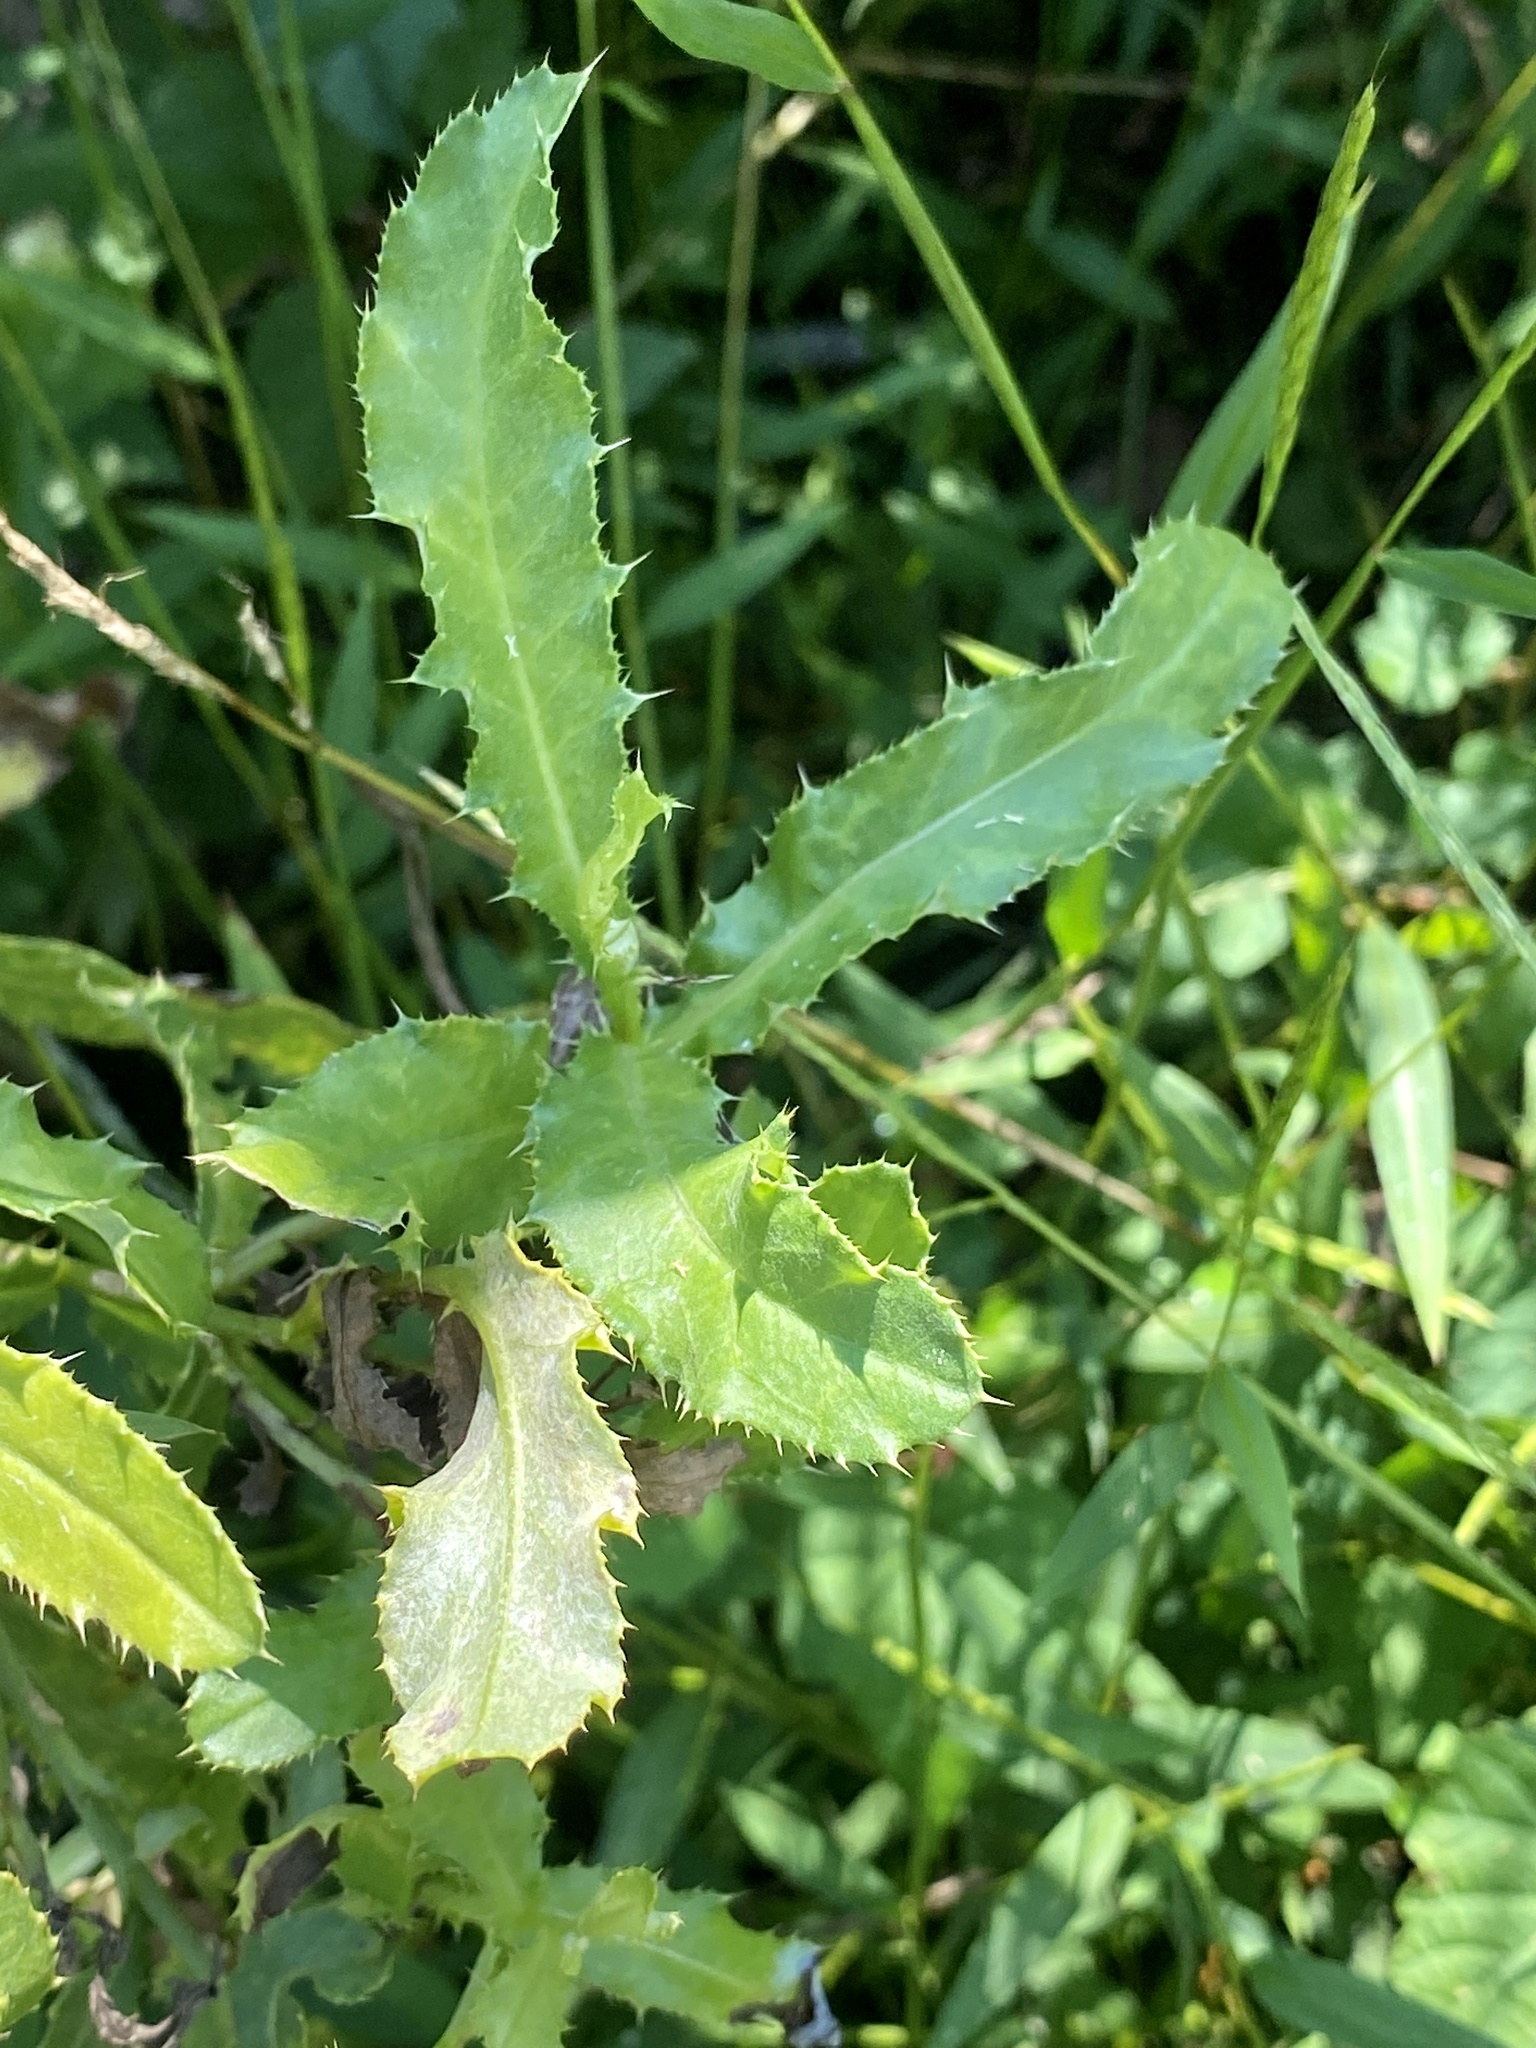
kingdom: Plantae
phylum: Tracheophyta
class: Magnoliopsida
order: Asterales
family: Asteraceae
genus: Cirsium
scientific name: Cirsium arvense
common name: Creeping thistle
